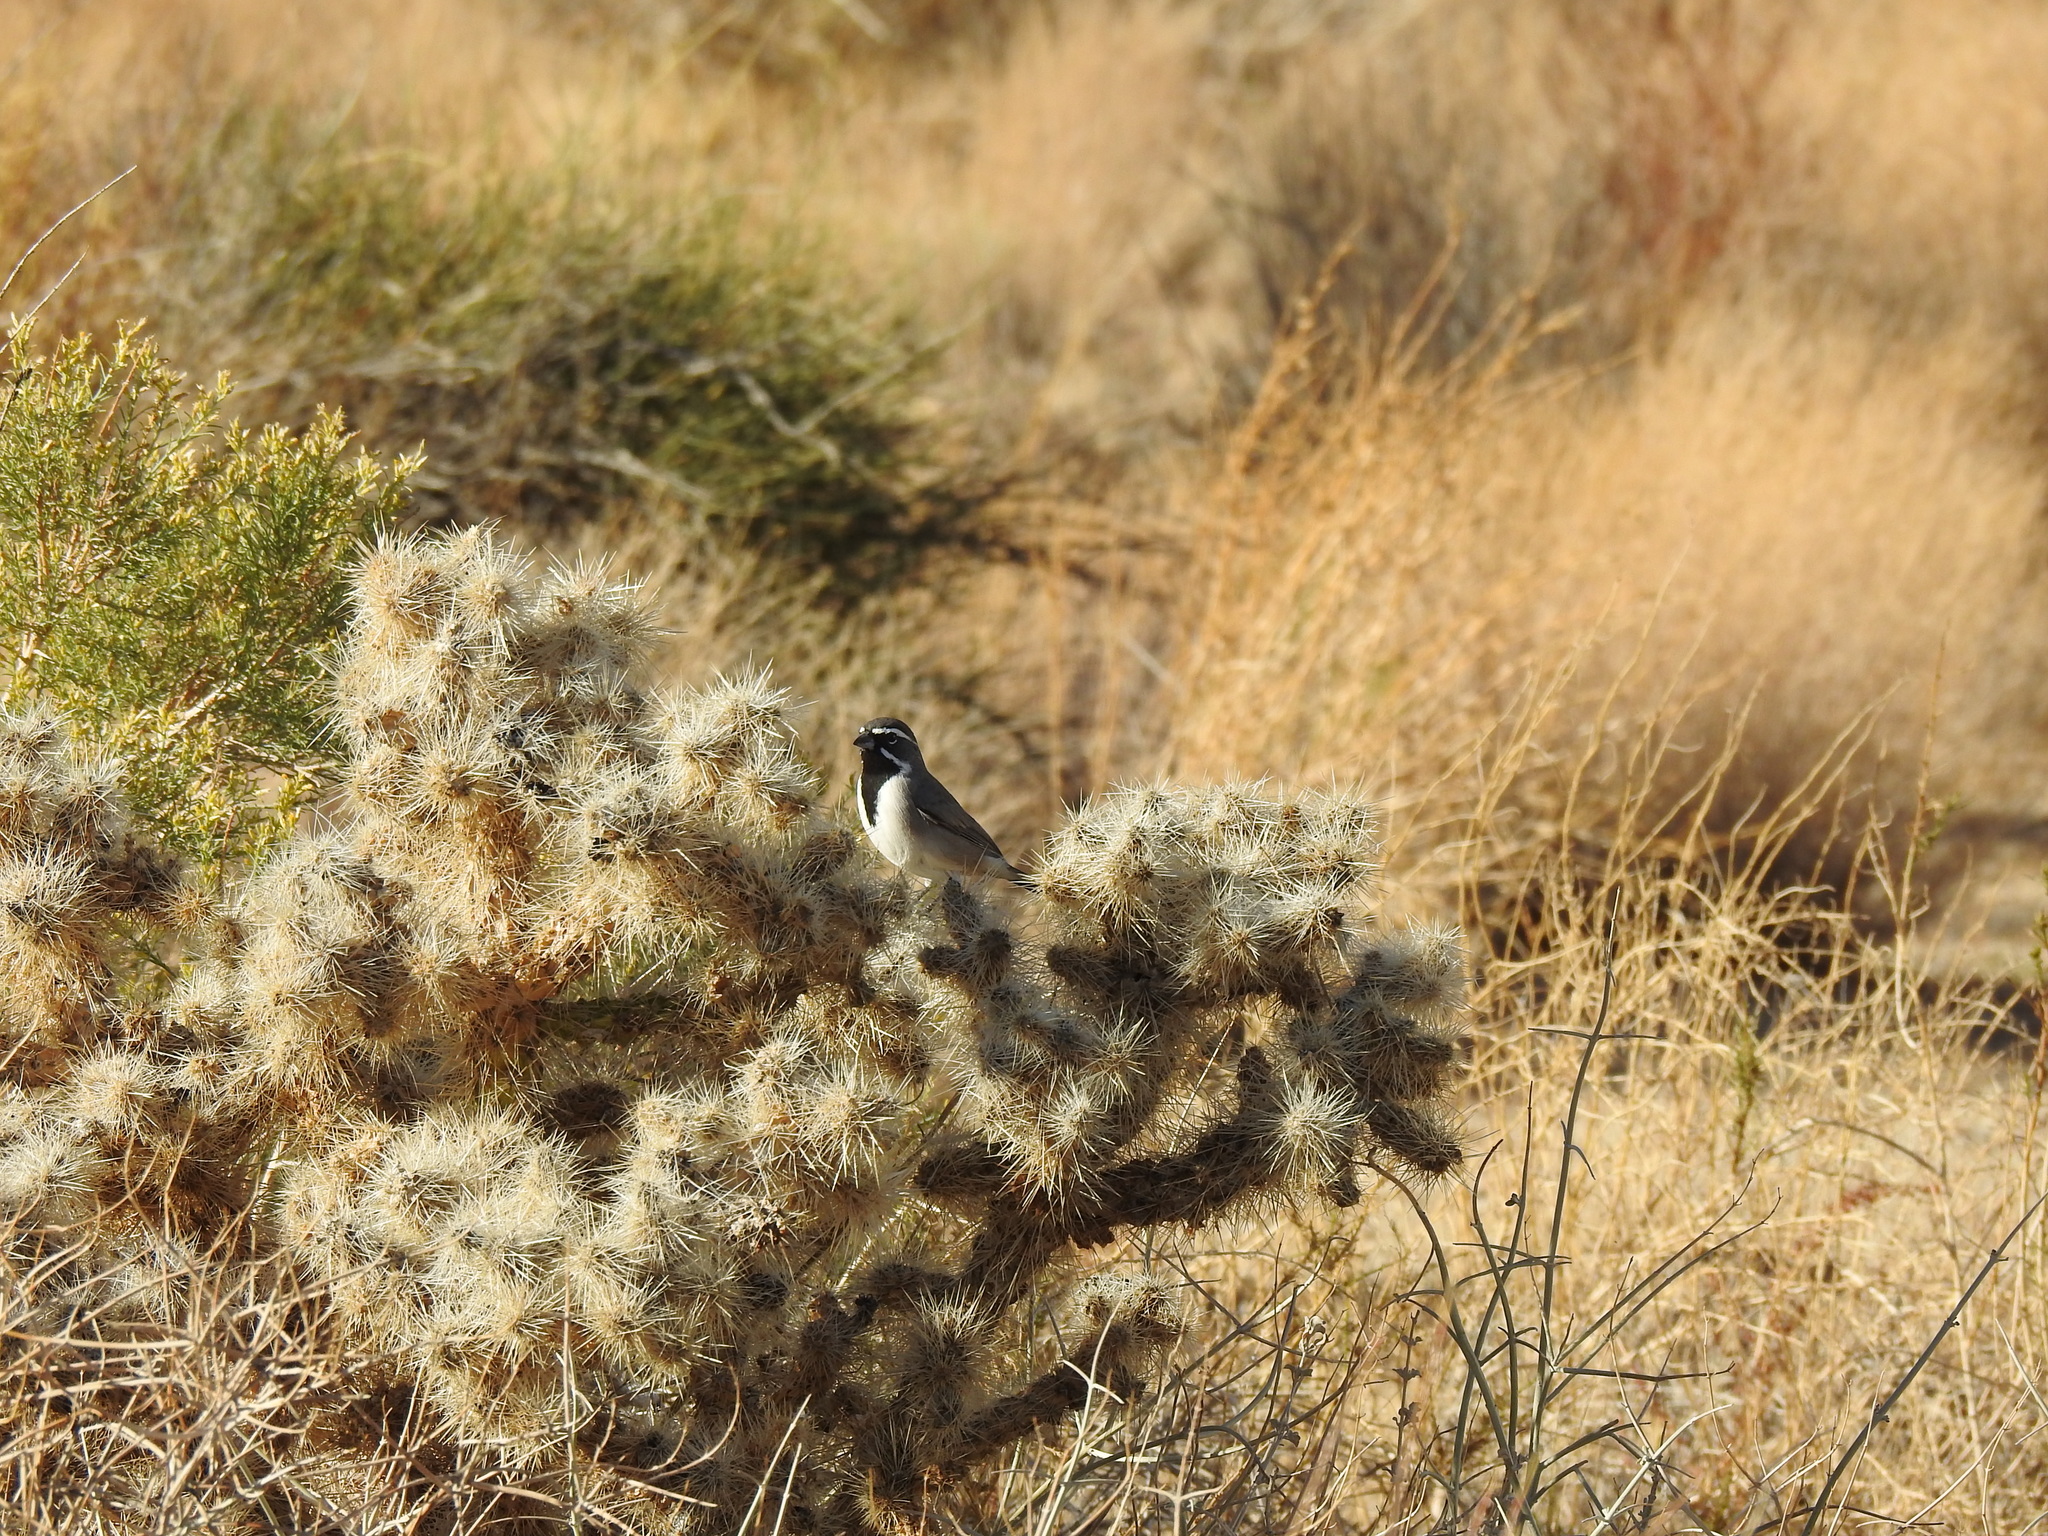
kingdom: Animalia
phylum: Chordata
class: Aves
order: Passeriformes
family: Passerellidae
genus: Amphispiza
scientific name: Amphispiza bilineata
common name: Black-throated sparrow
